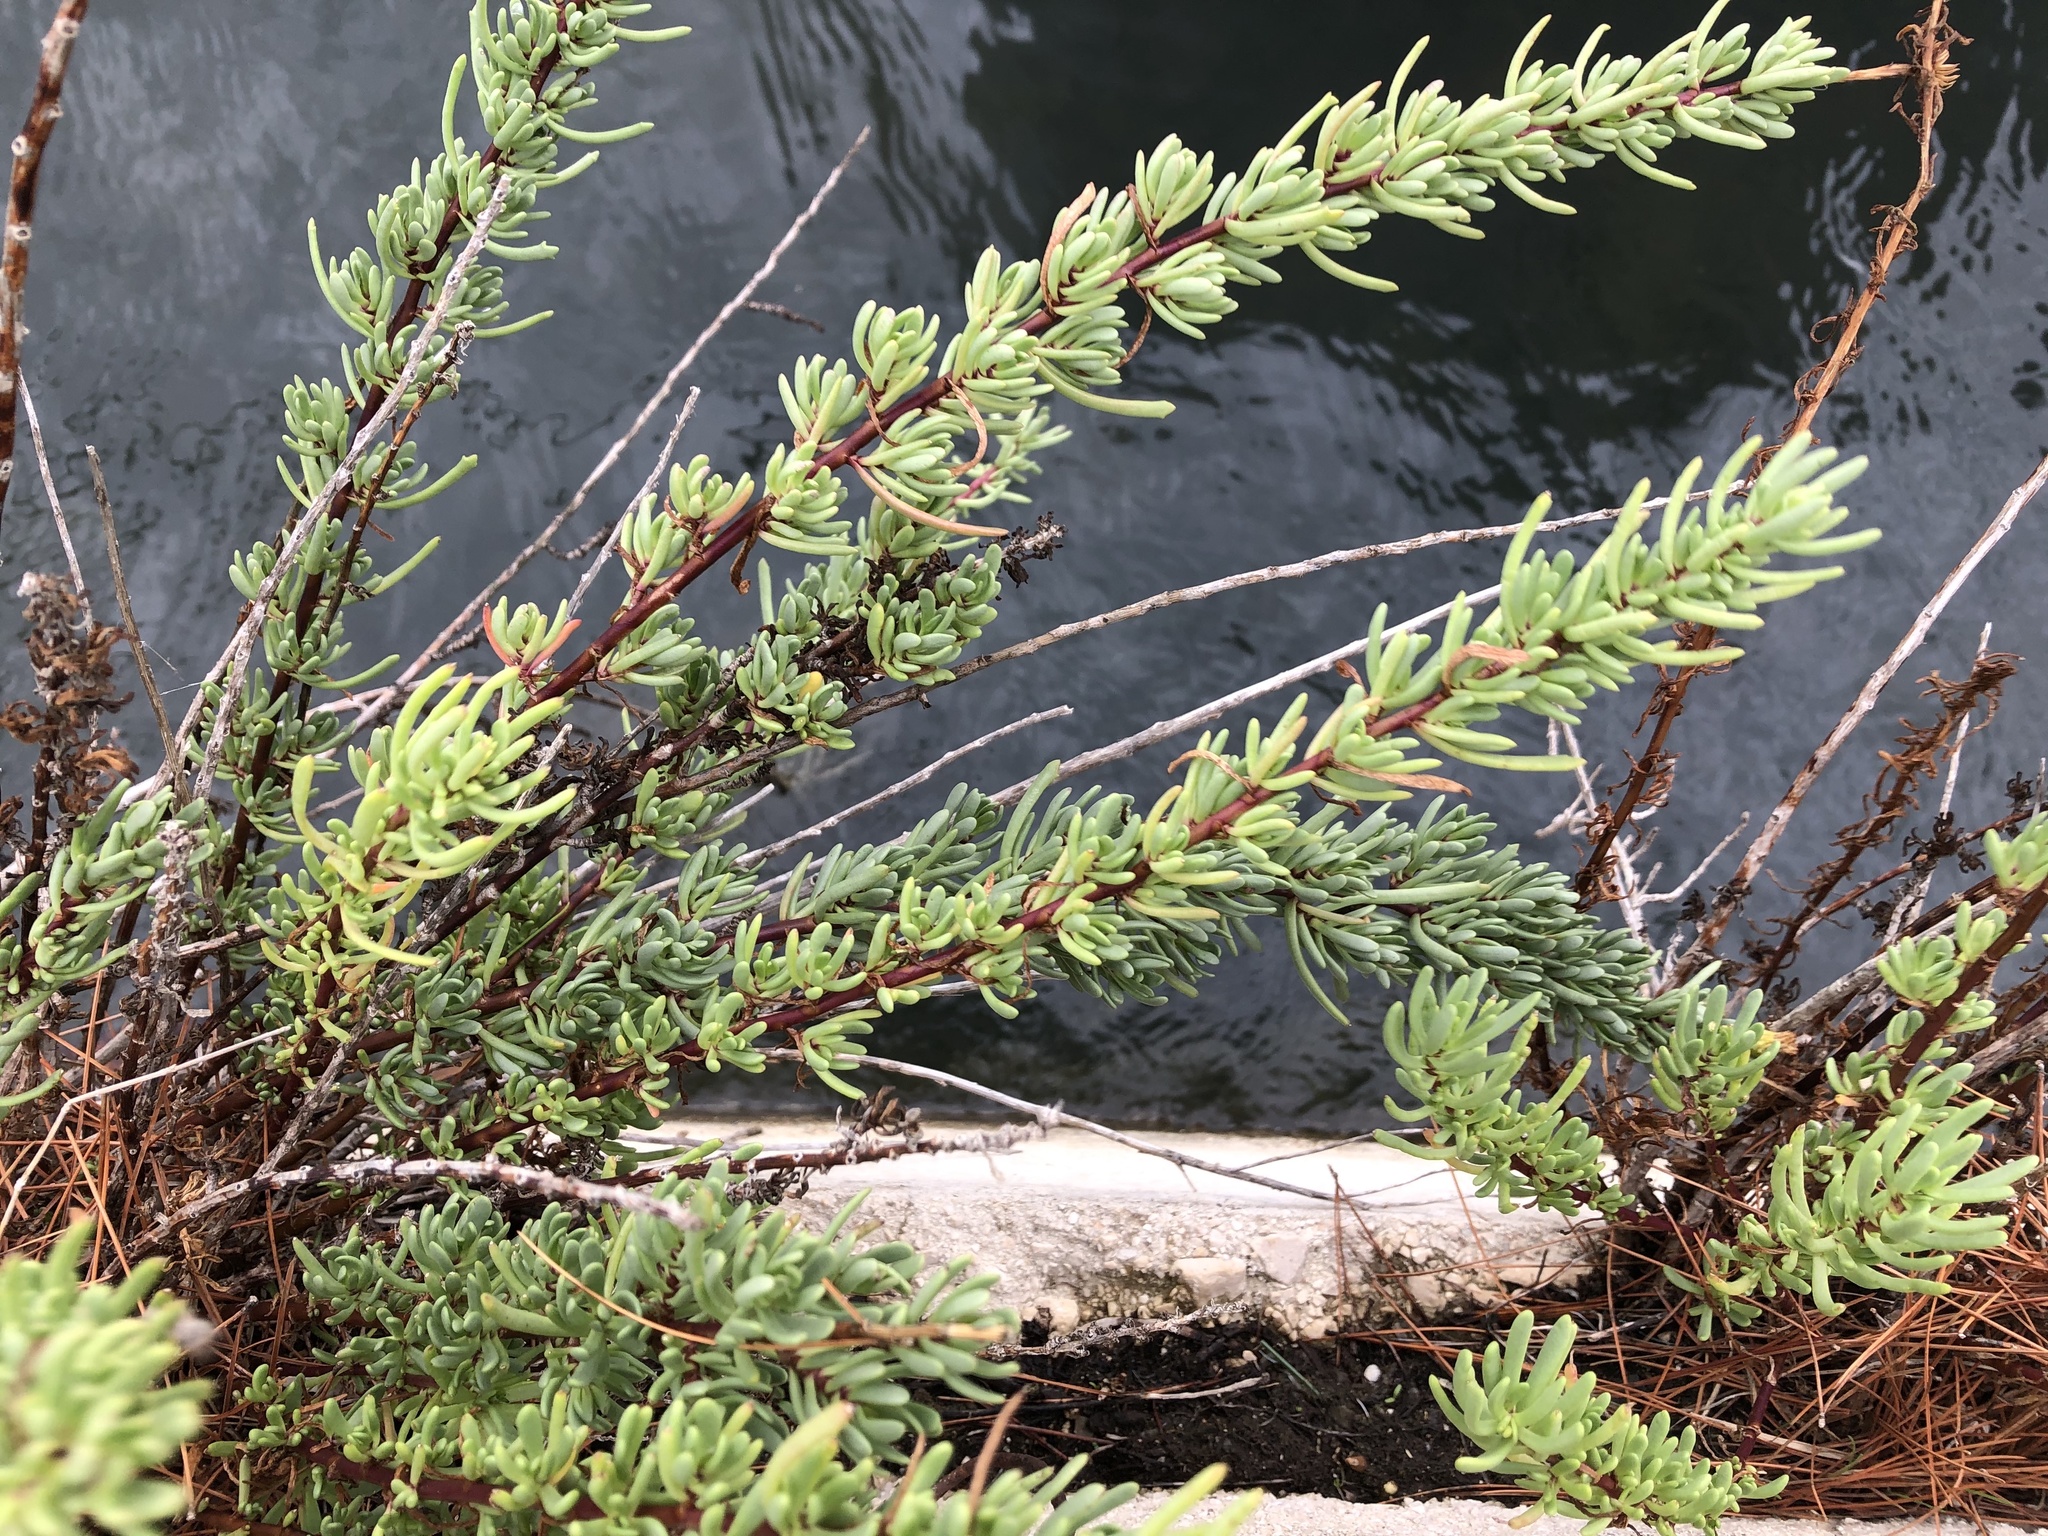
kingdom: Plantae
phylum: Tracheophyta
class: Magnoliopsida
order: Asterales
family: Asteraceae
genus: Limbarda
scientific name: Limbarda crithmoides
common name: Golden samphire
